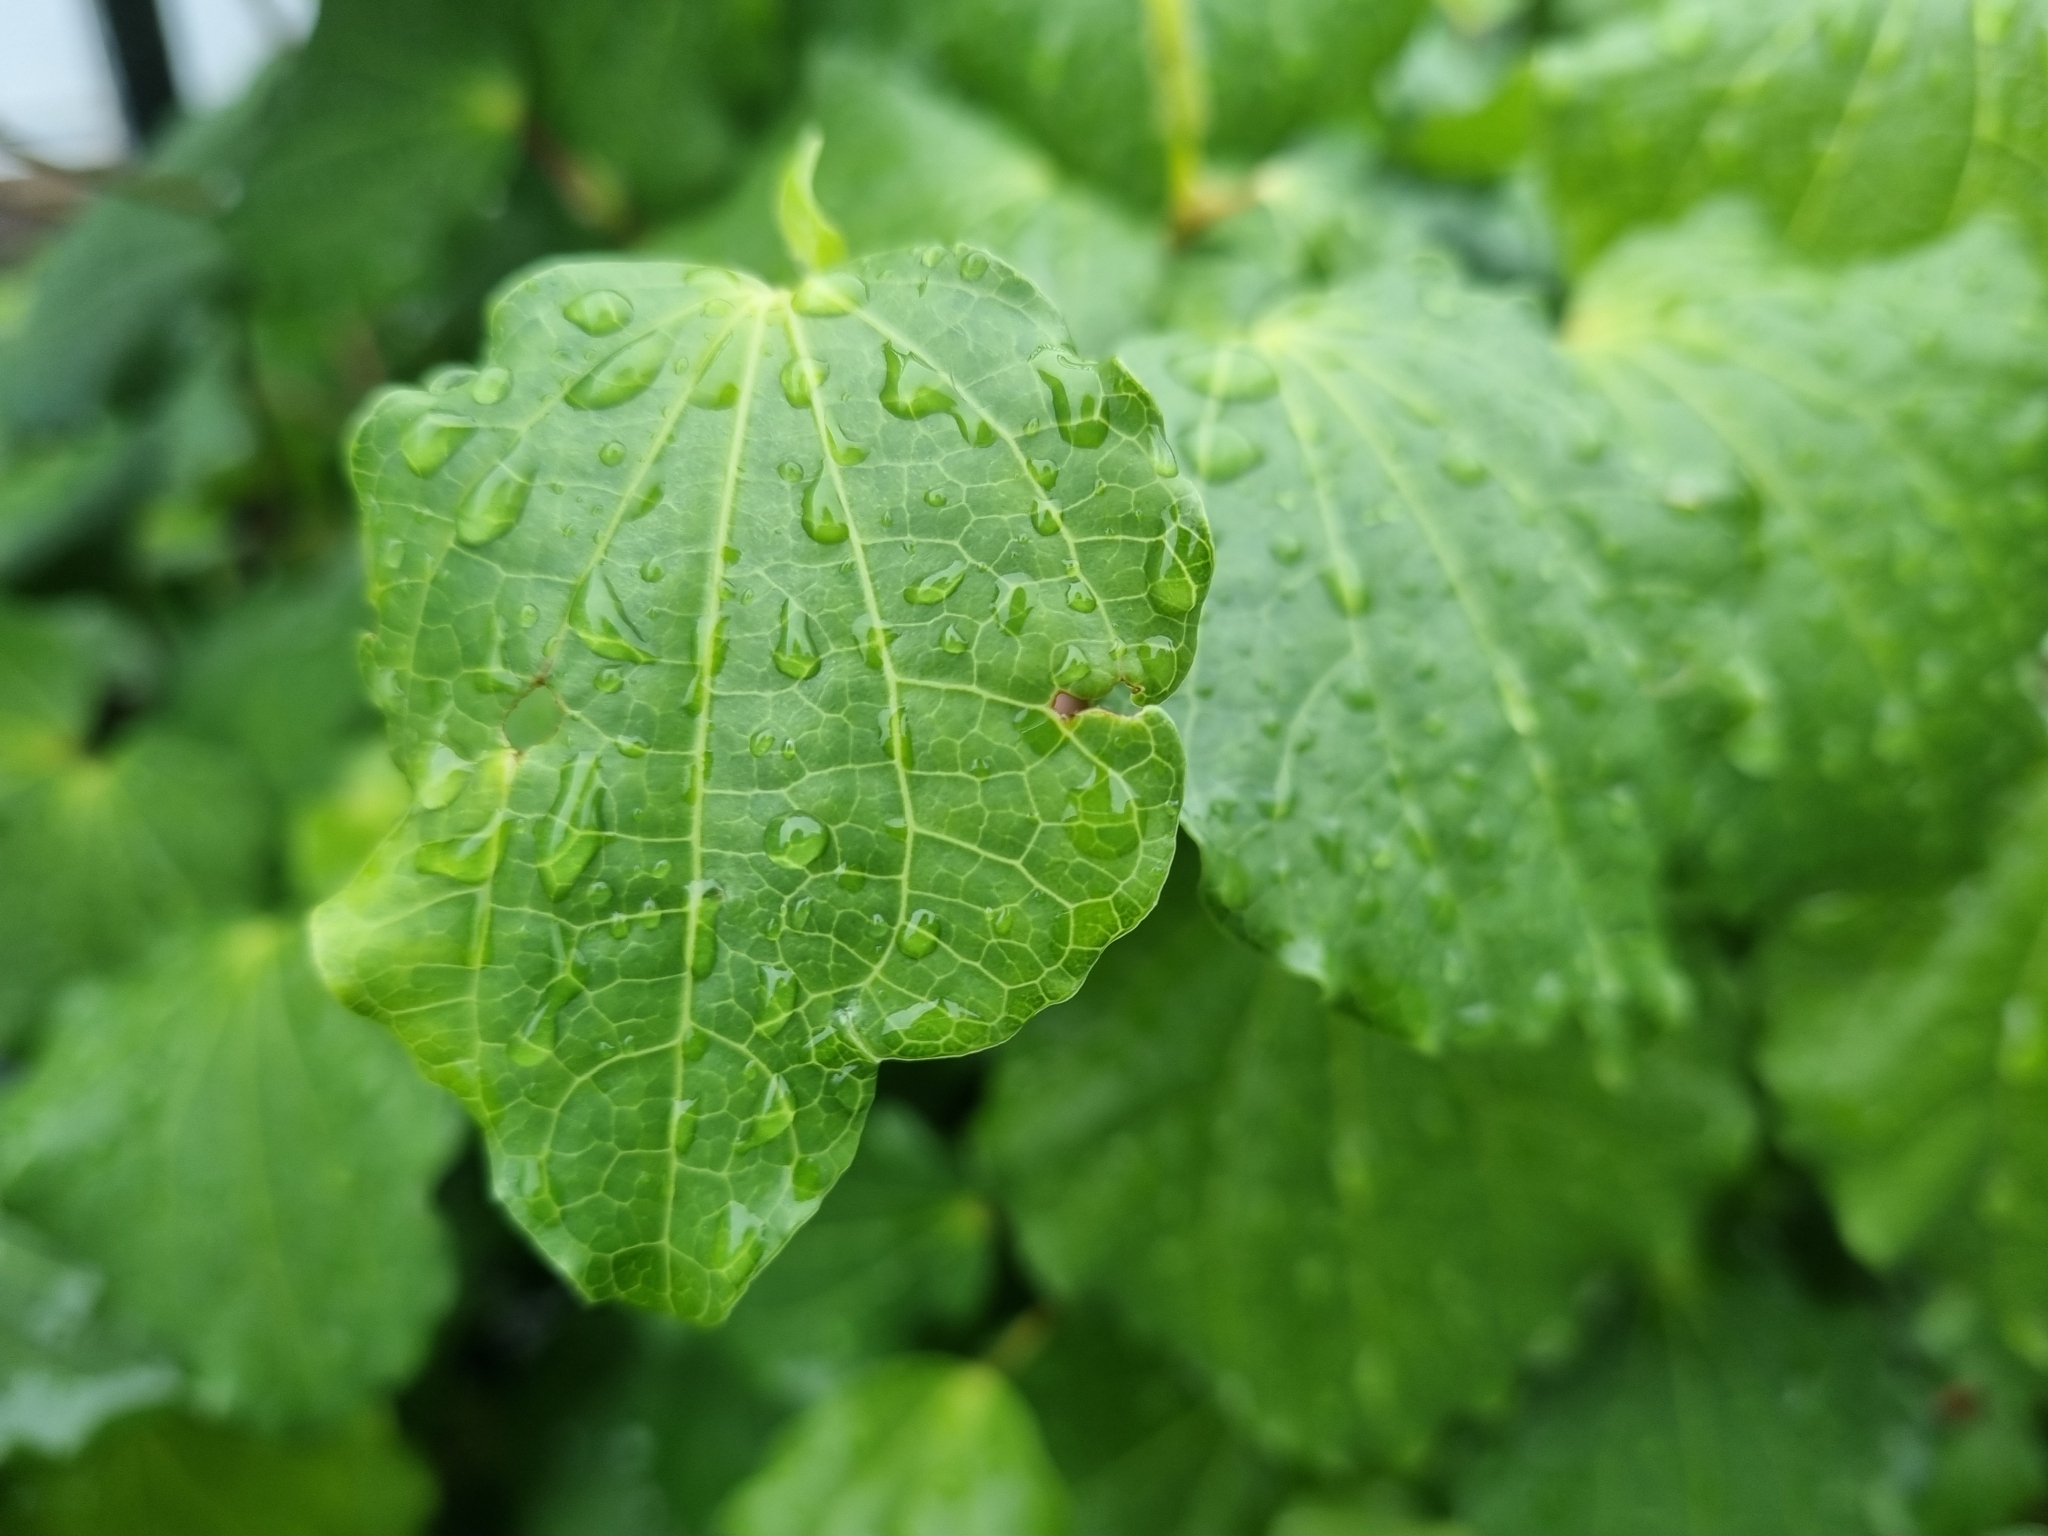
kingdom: Plantae
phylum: Tracheophyta
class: Magnoliopsida
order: Piperales
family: Piperaceae
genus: Macropiper
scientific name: Macropiper excelsum
